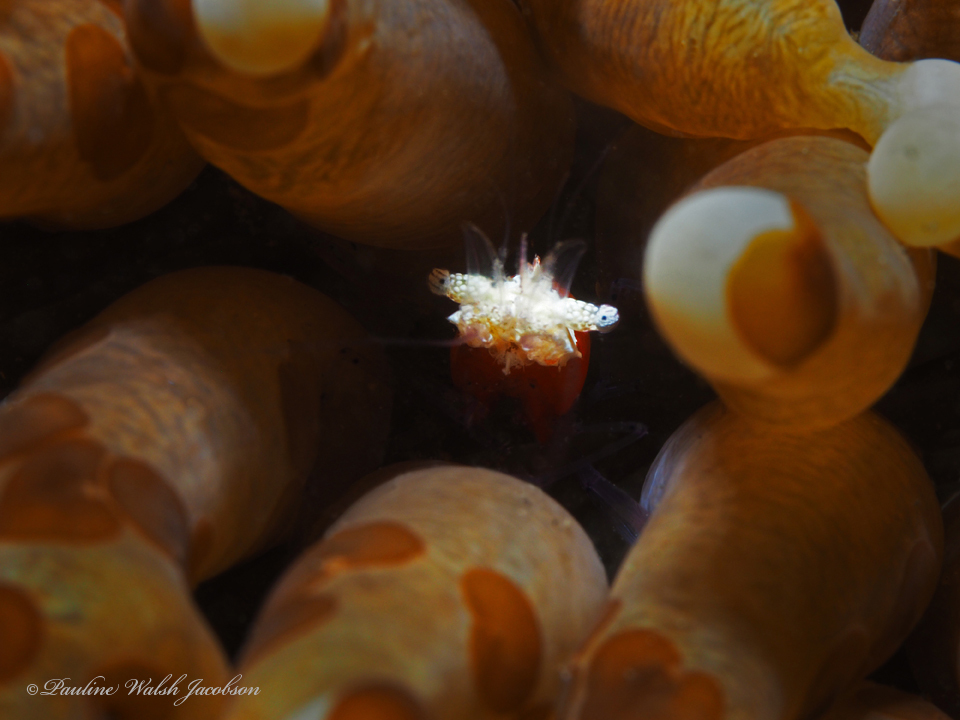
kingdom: Animalia
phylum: Arthropoda
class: Malacostraca
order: Decapoda
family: Palaemonidae
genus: Cuapetes
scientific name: Cuapetes kororensis
